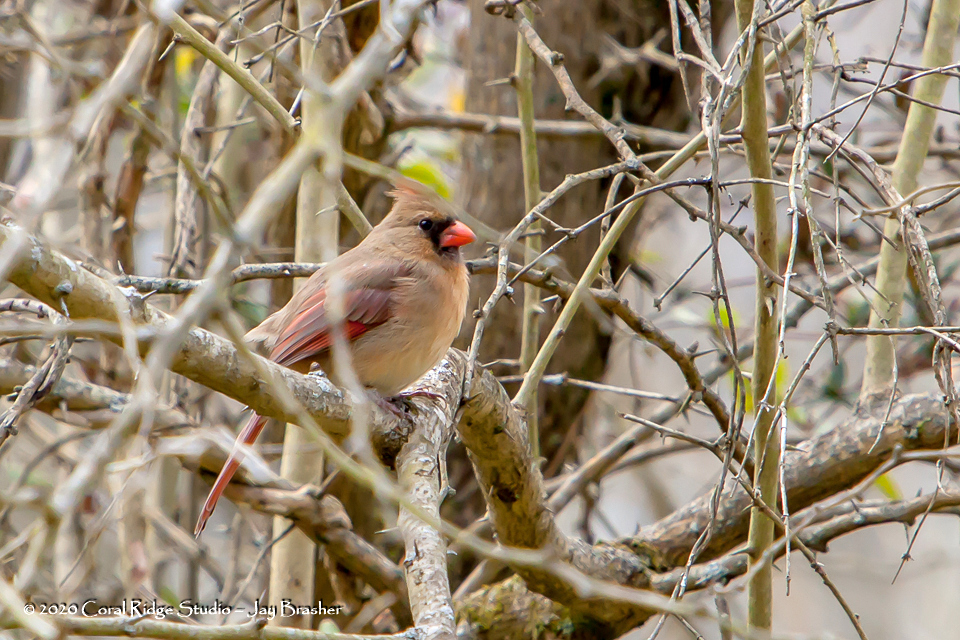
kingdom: Animalia
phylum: Chordata
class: Aves
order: Passeriformes
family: Cardinalidae
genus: Cardinalis
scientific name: Cardinalis cardinalis
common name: Northern cardinal
